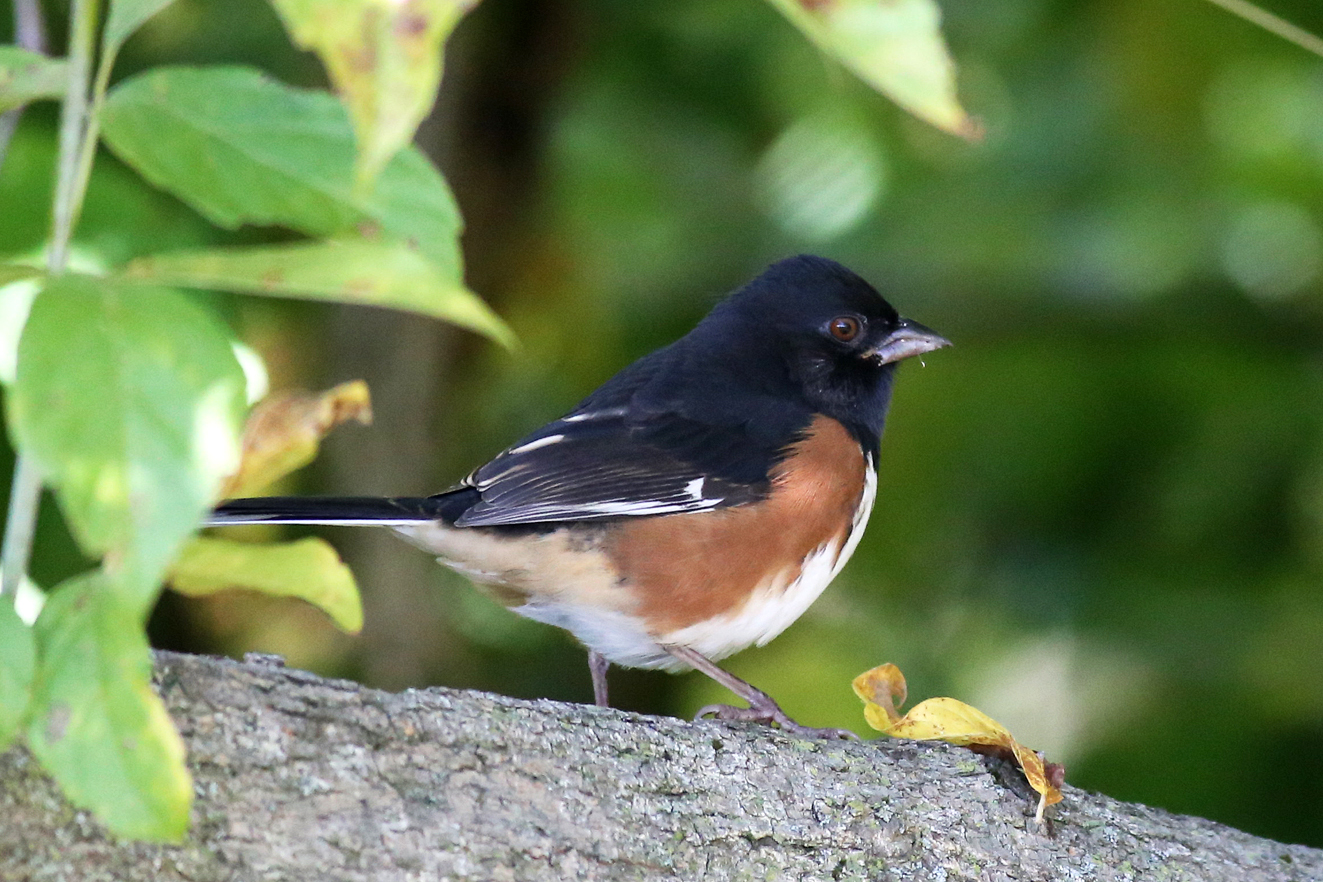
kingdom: Animalia
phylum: Chordata
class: Aves
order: Passeriformes
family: Passerellidae
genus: Pipilo
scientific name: Pipilo erythrophthalmus
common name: Eastern towhee
